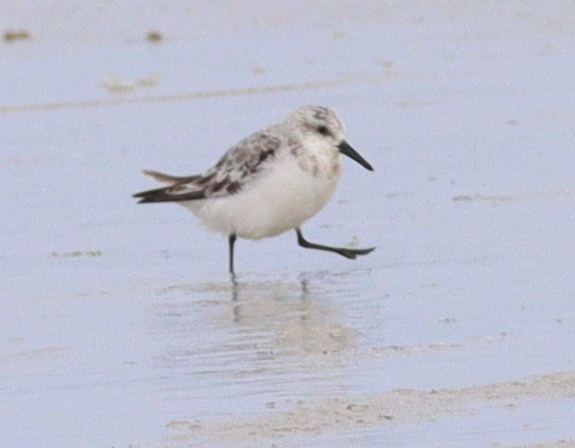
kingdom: Animalia
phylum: Chordata
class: Aves
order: Charadriiformes
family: Scolopacidae
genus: Calidris
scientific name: Calidris alba
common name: Sanderling
